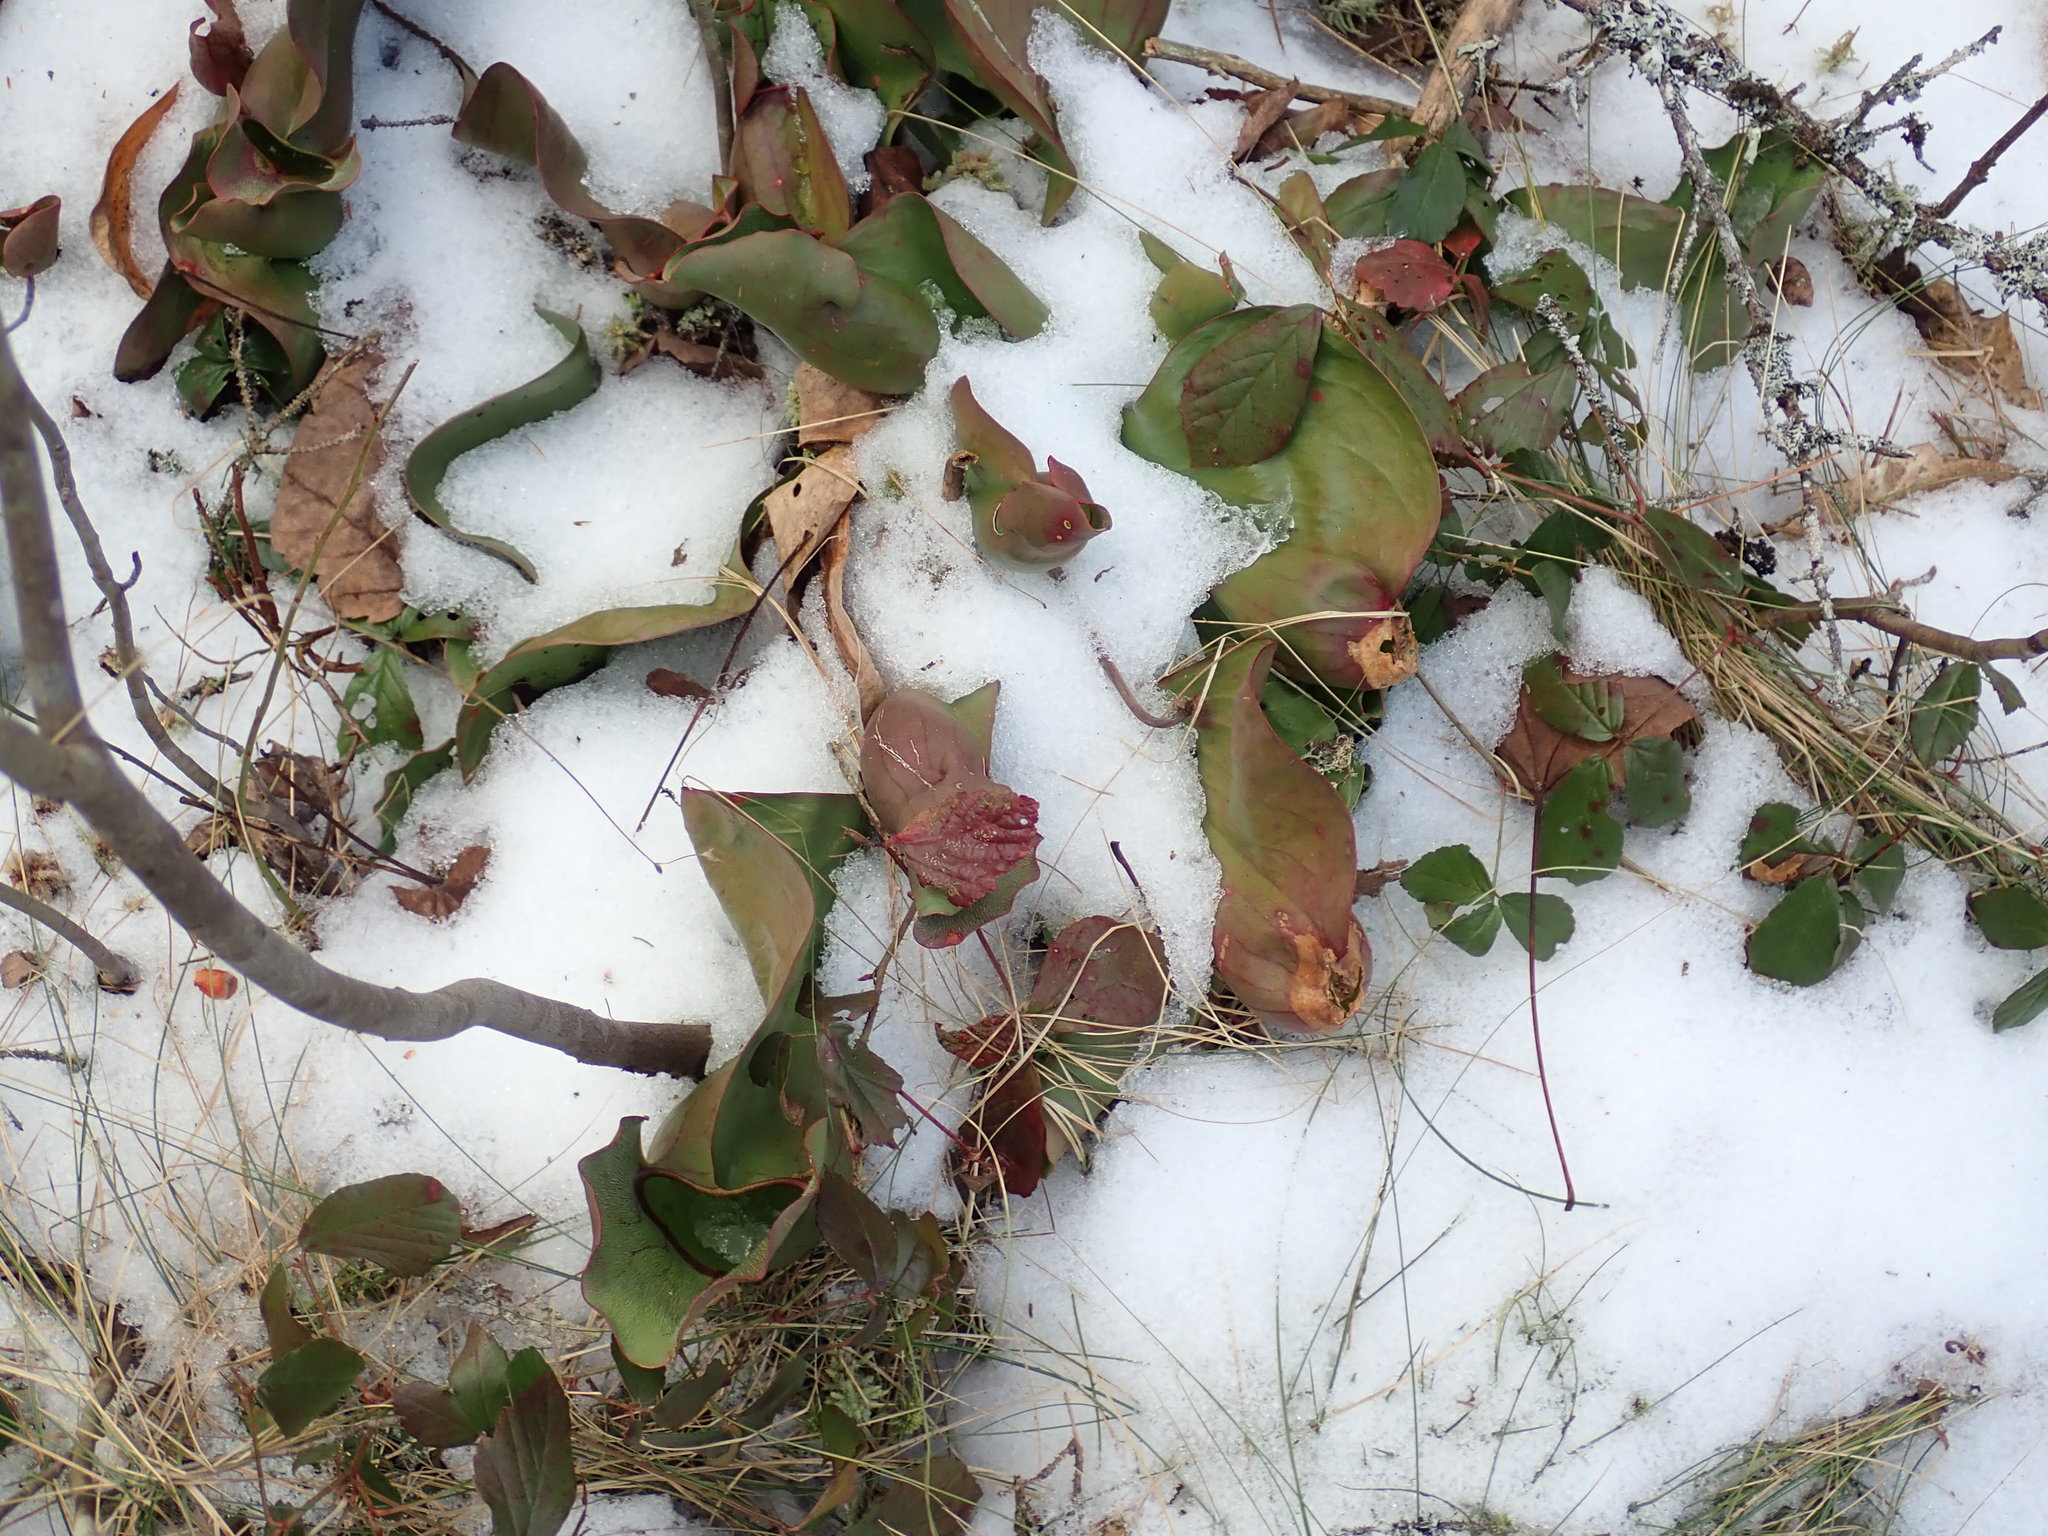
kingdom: Plantae
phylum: Tracheophyta
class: Magnoliopsida
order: Ericales
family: Sarraceniaceae
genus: Sarracenia
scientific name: Sarracenia purpurea
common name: Pitcherplant
